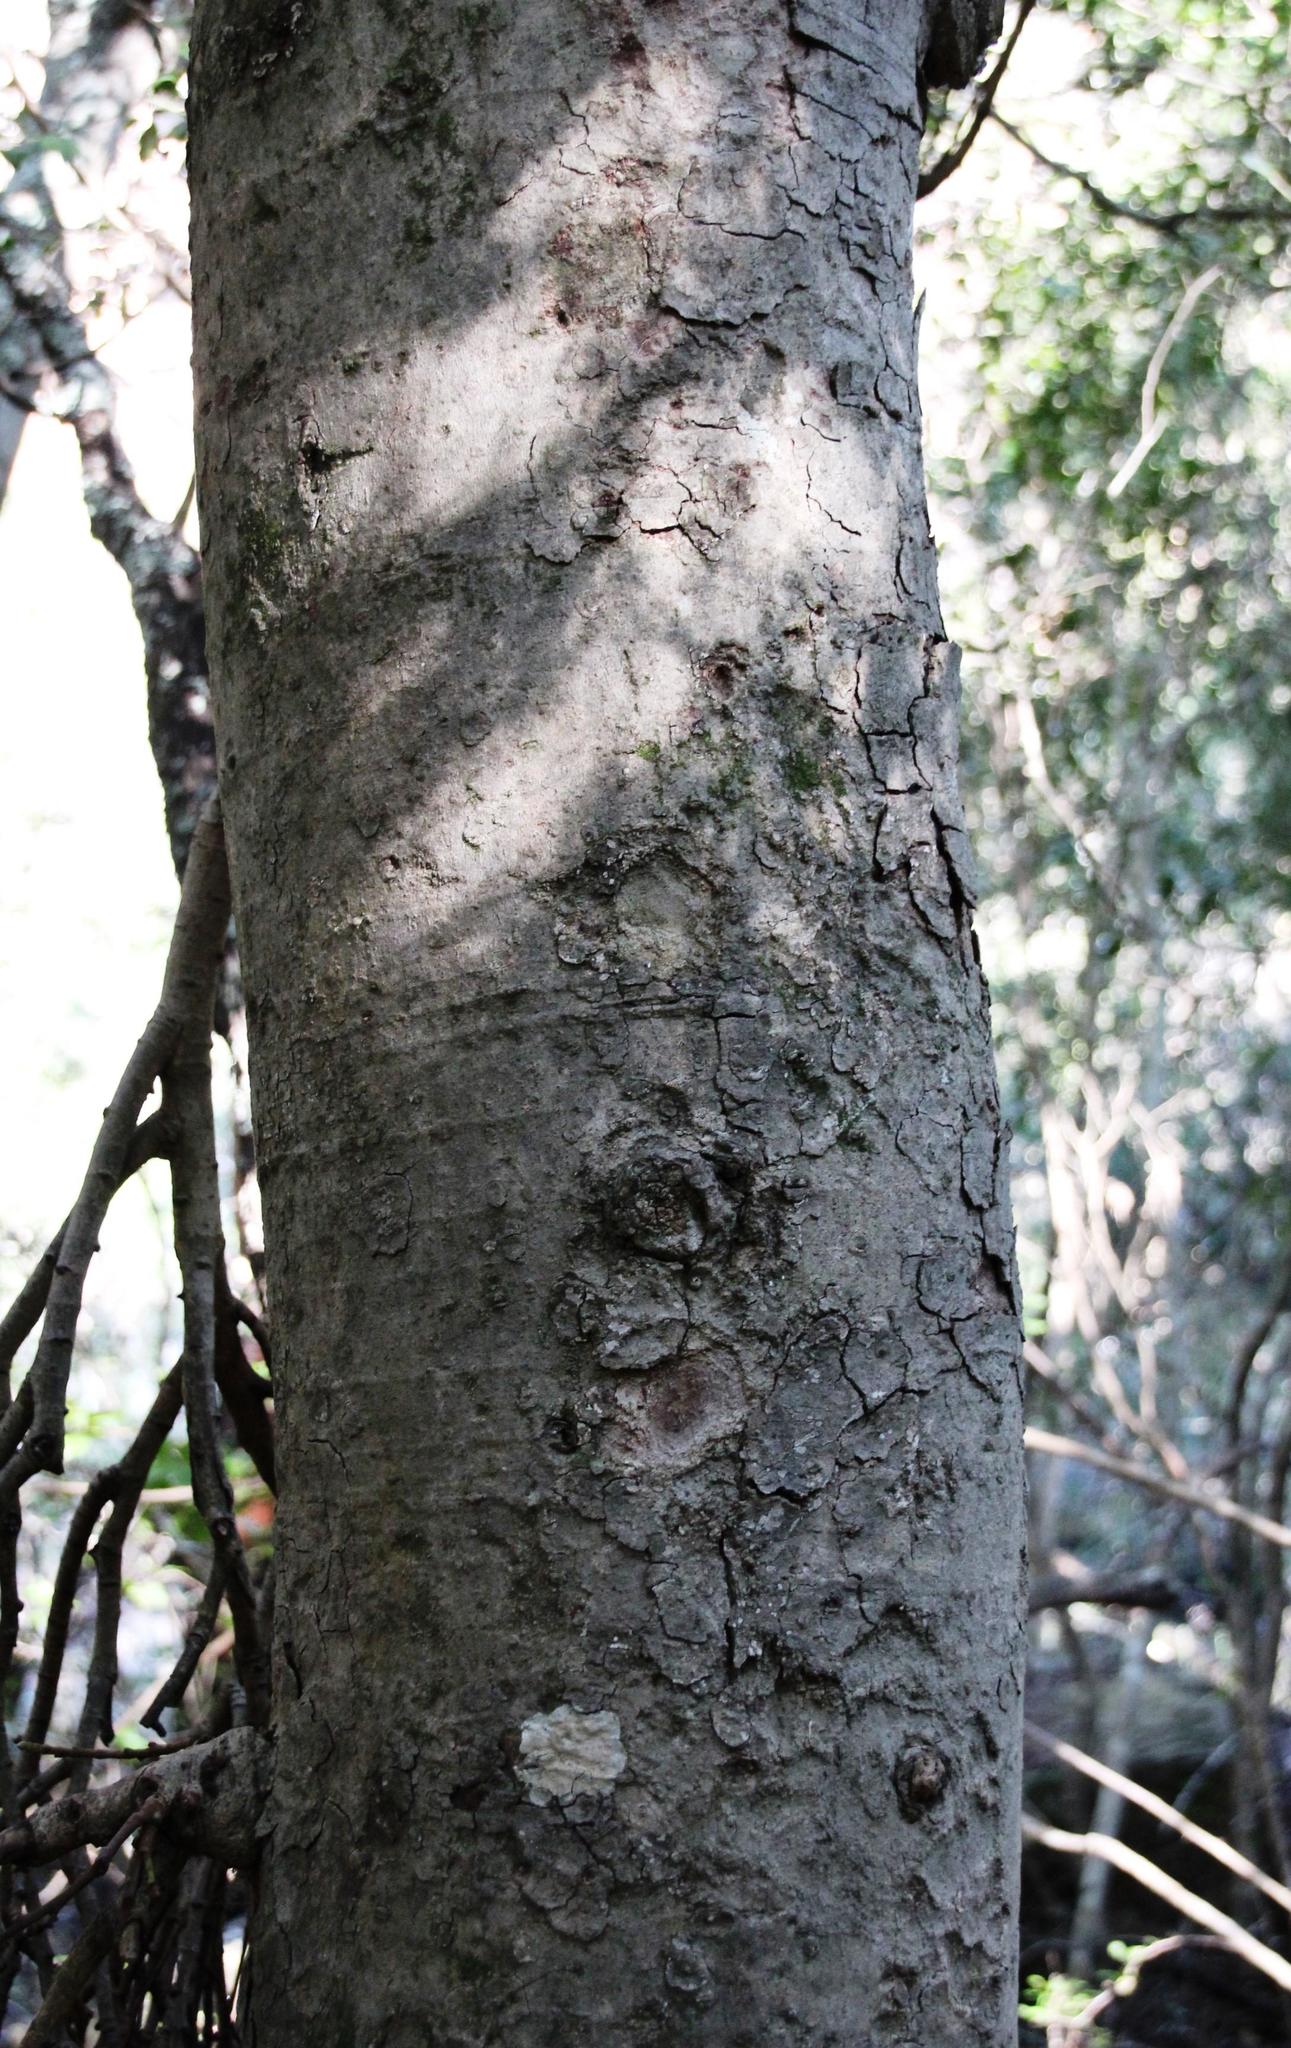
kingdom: Plantae
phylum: Tracheophyta
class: Magnoliopsida
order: Rosales
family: Moraceae
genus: Ficus
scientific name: Ficus sur
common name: Cape fig
